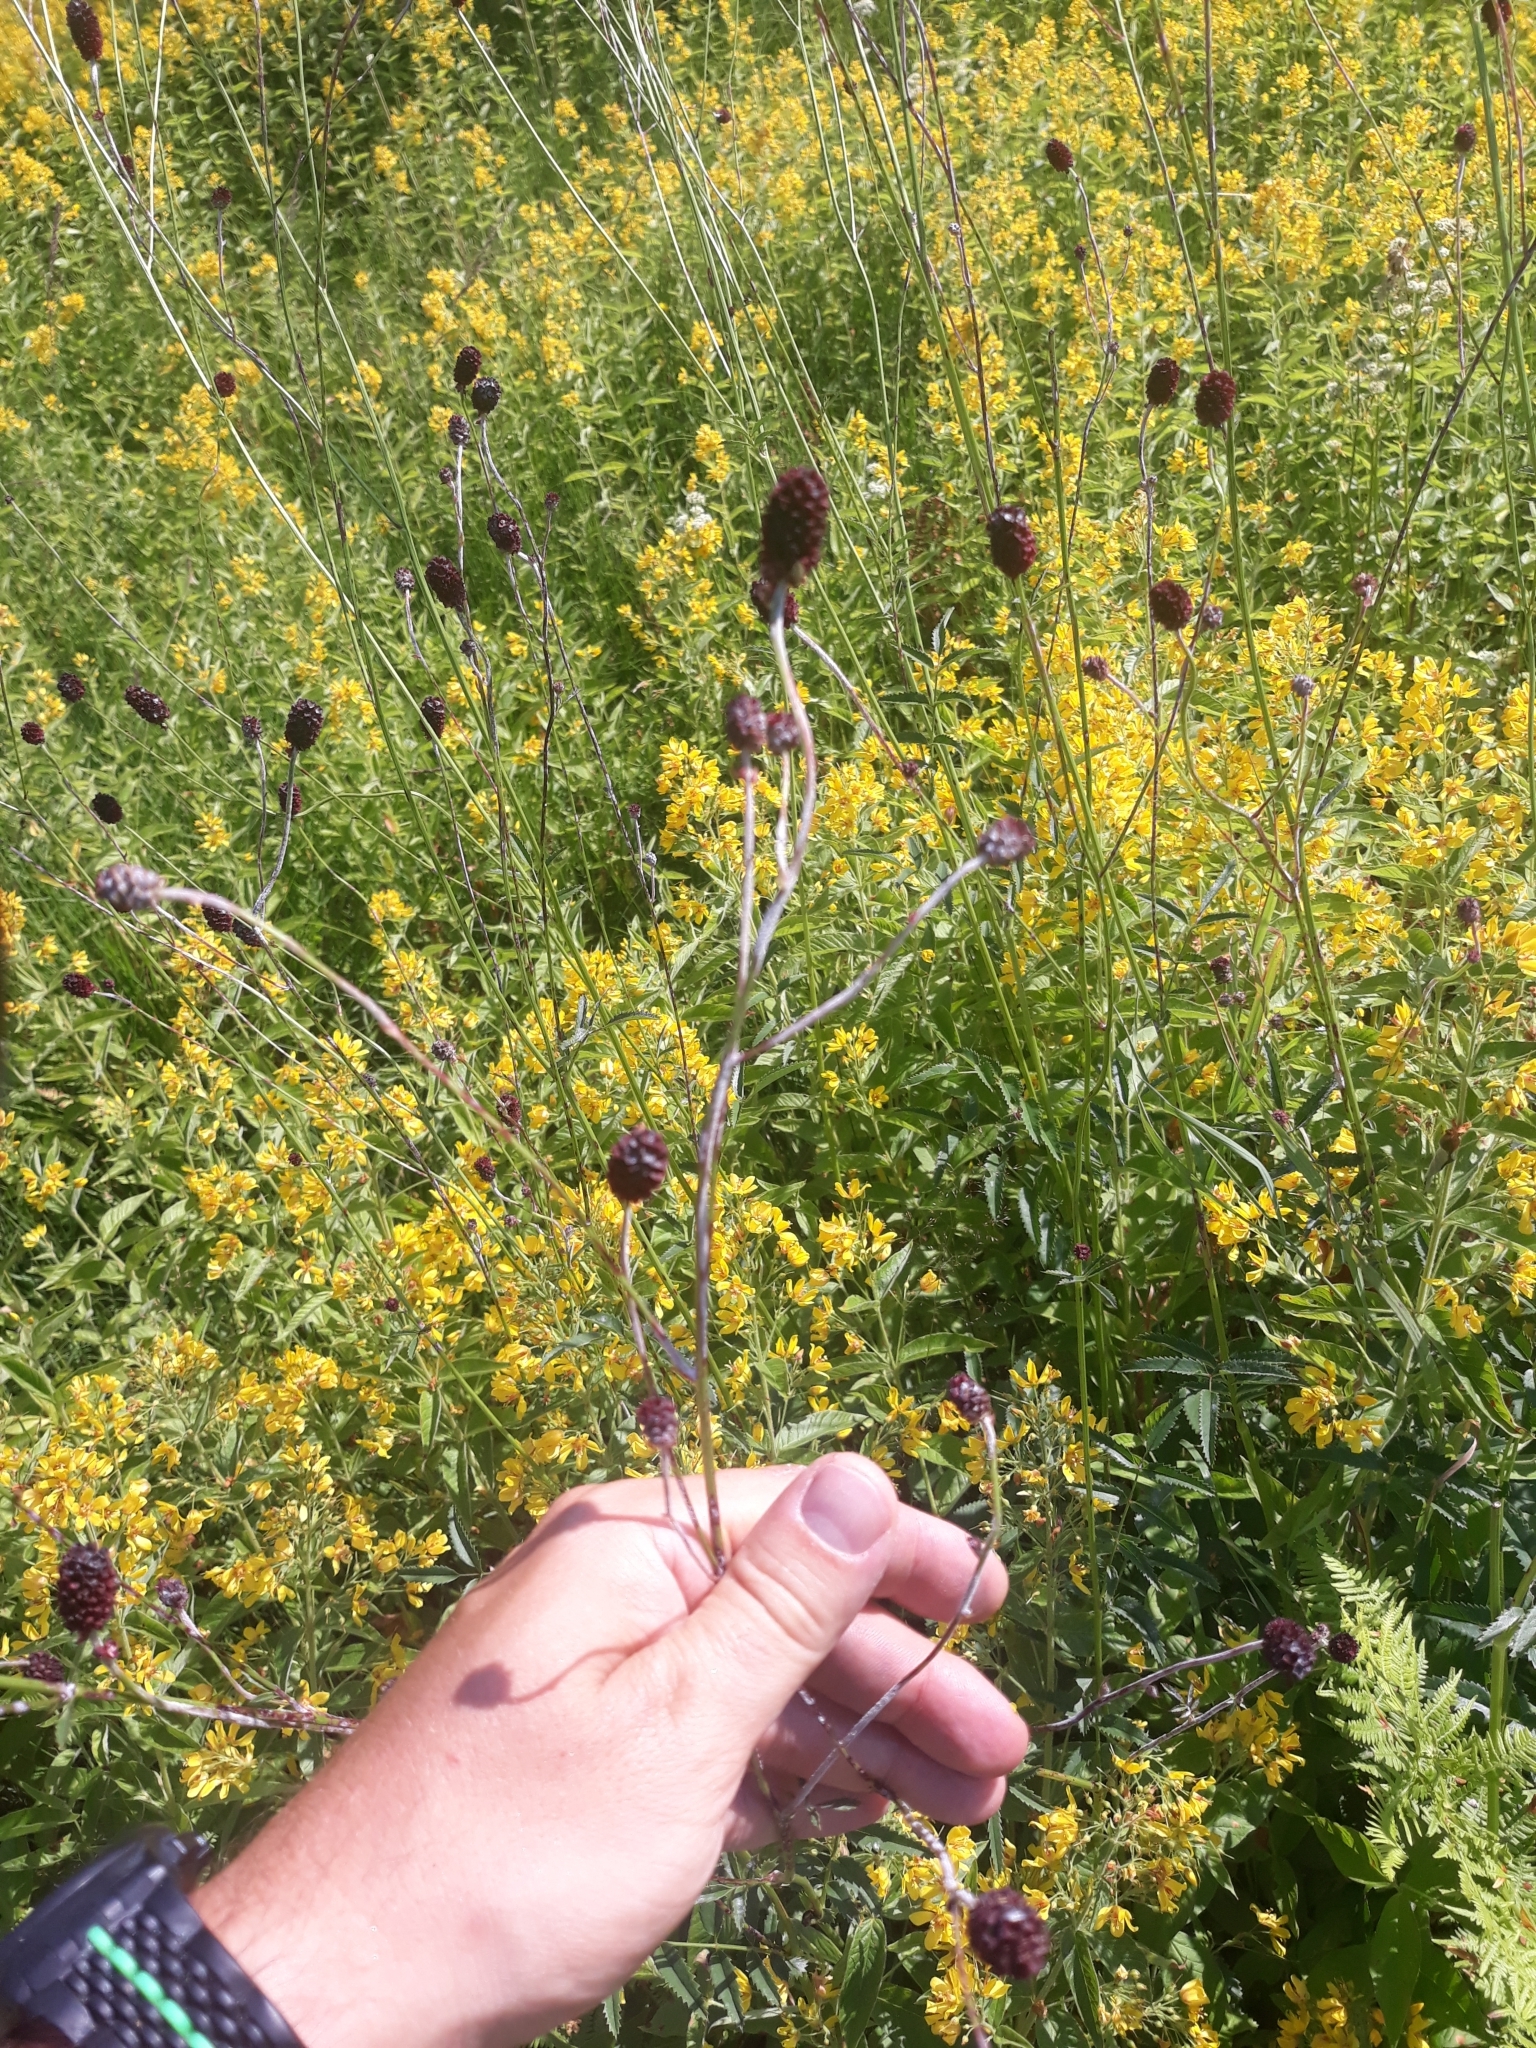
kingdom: Plantae
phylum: Tracheophyta
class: Magnoliopsida
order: Rosales
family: Rosaceae
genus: Sanguisorba
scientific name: Sanguisorba officinalis
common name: Great burnet
